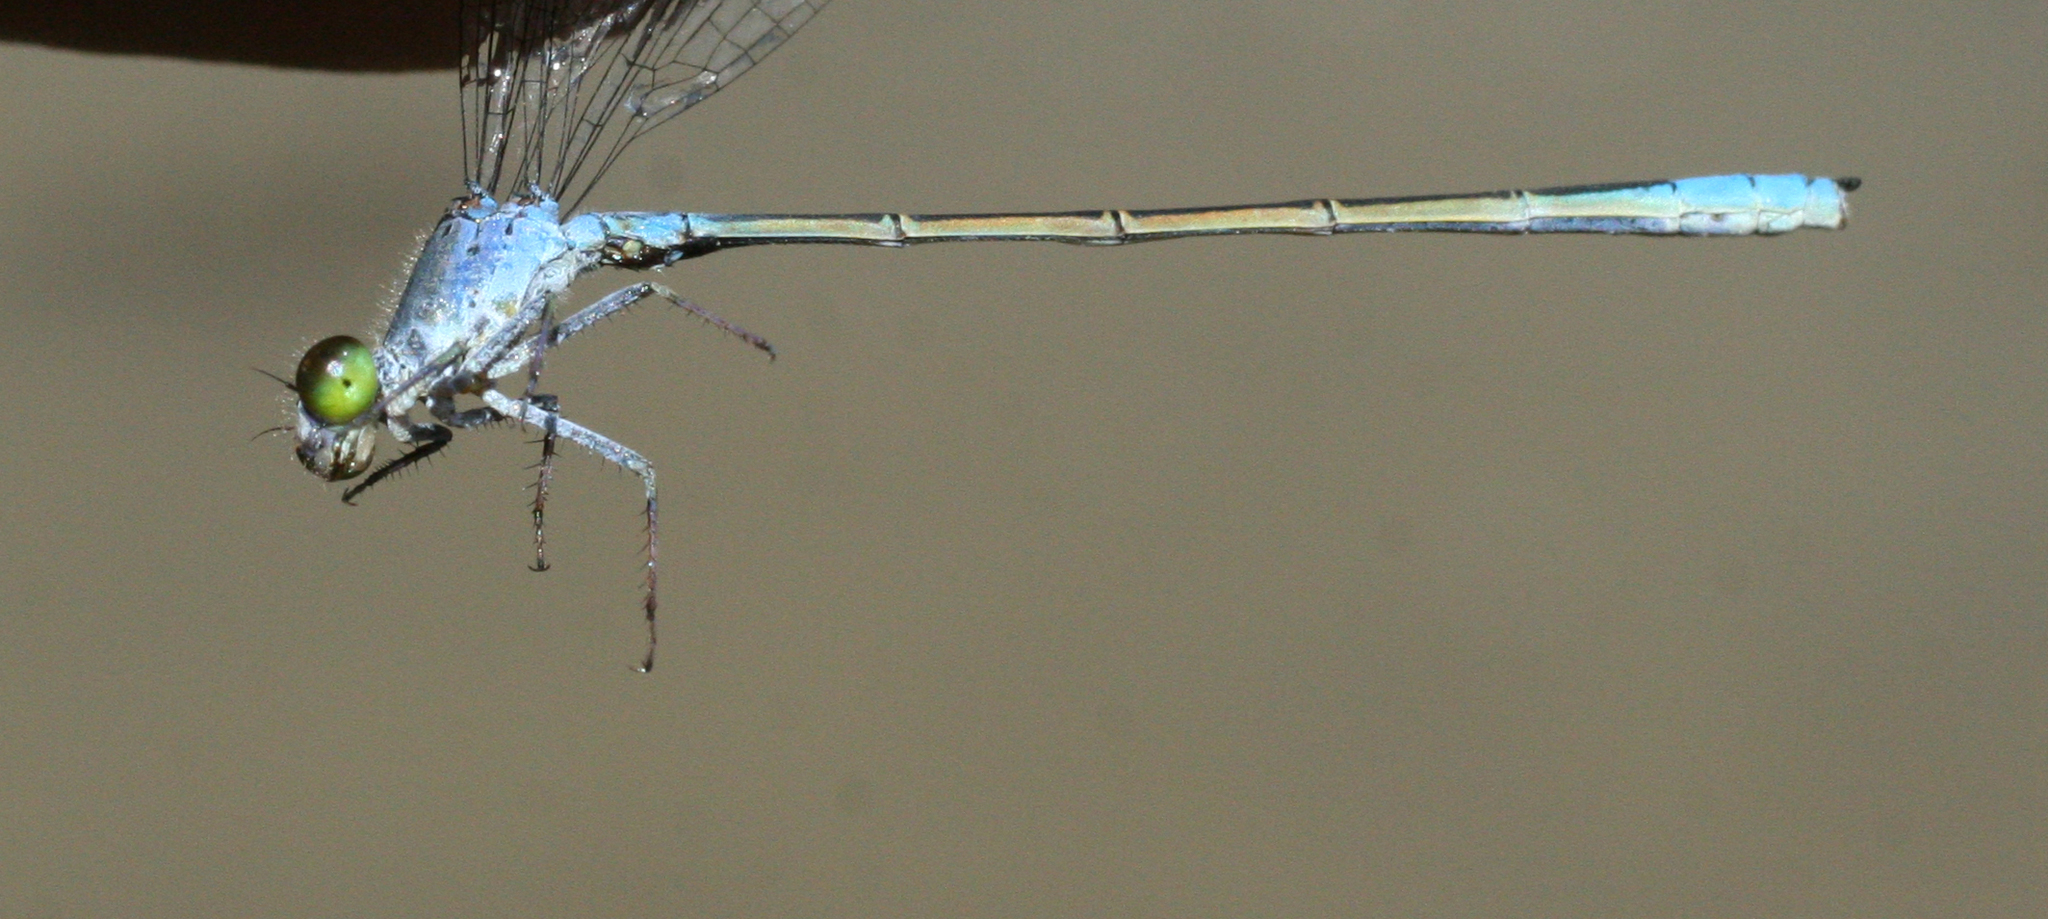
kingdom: Animalia
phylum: Arthropoda
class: Insecta
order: Odonata
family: Coenagrionidae
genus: Paracercion
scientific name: Paracercion calamorum
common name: Dusky lilysquatter
